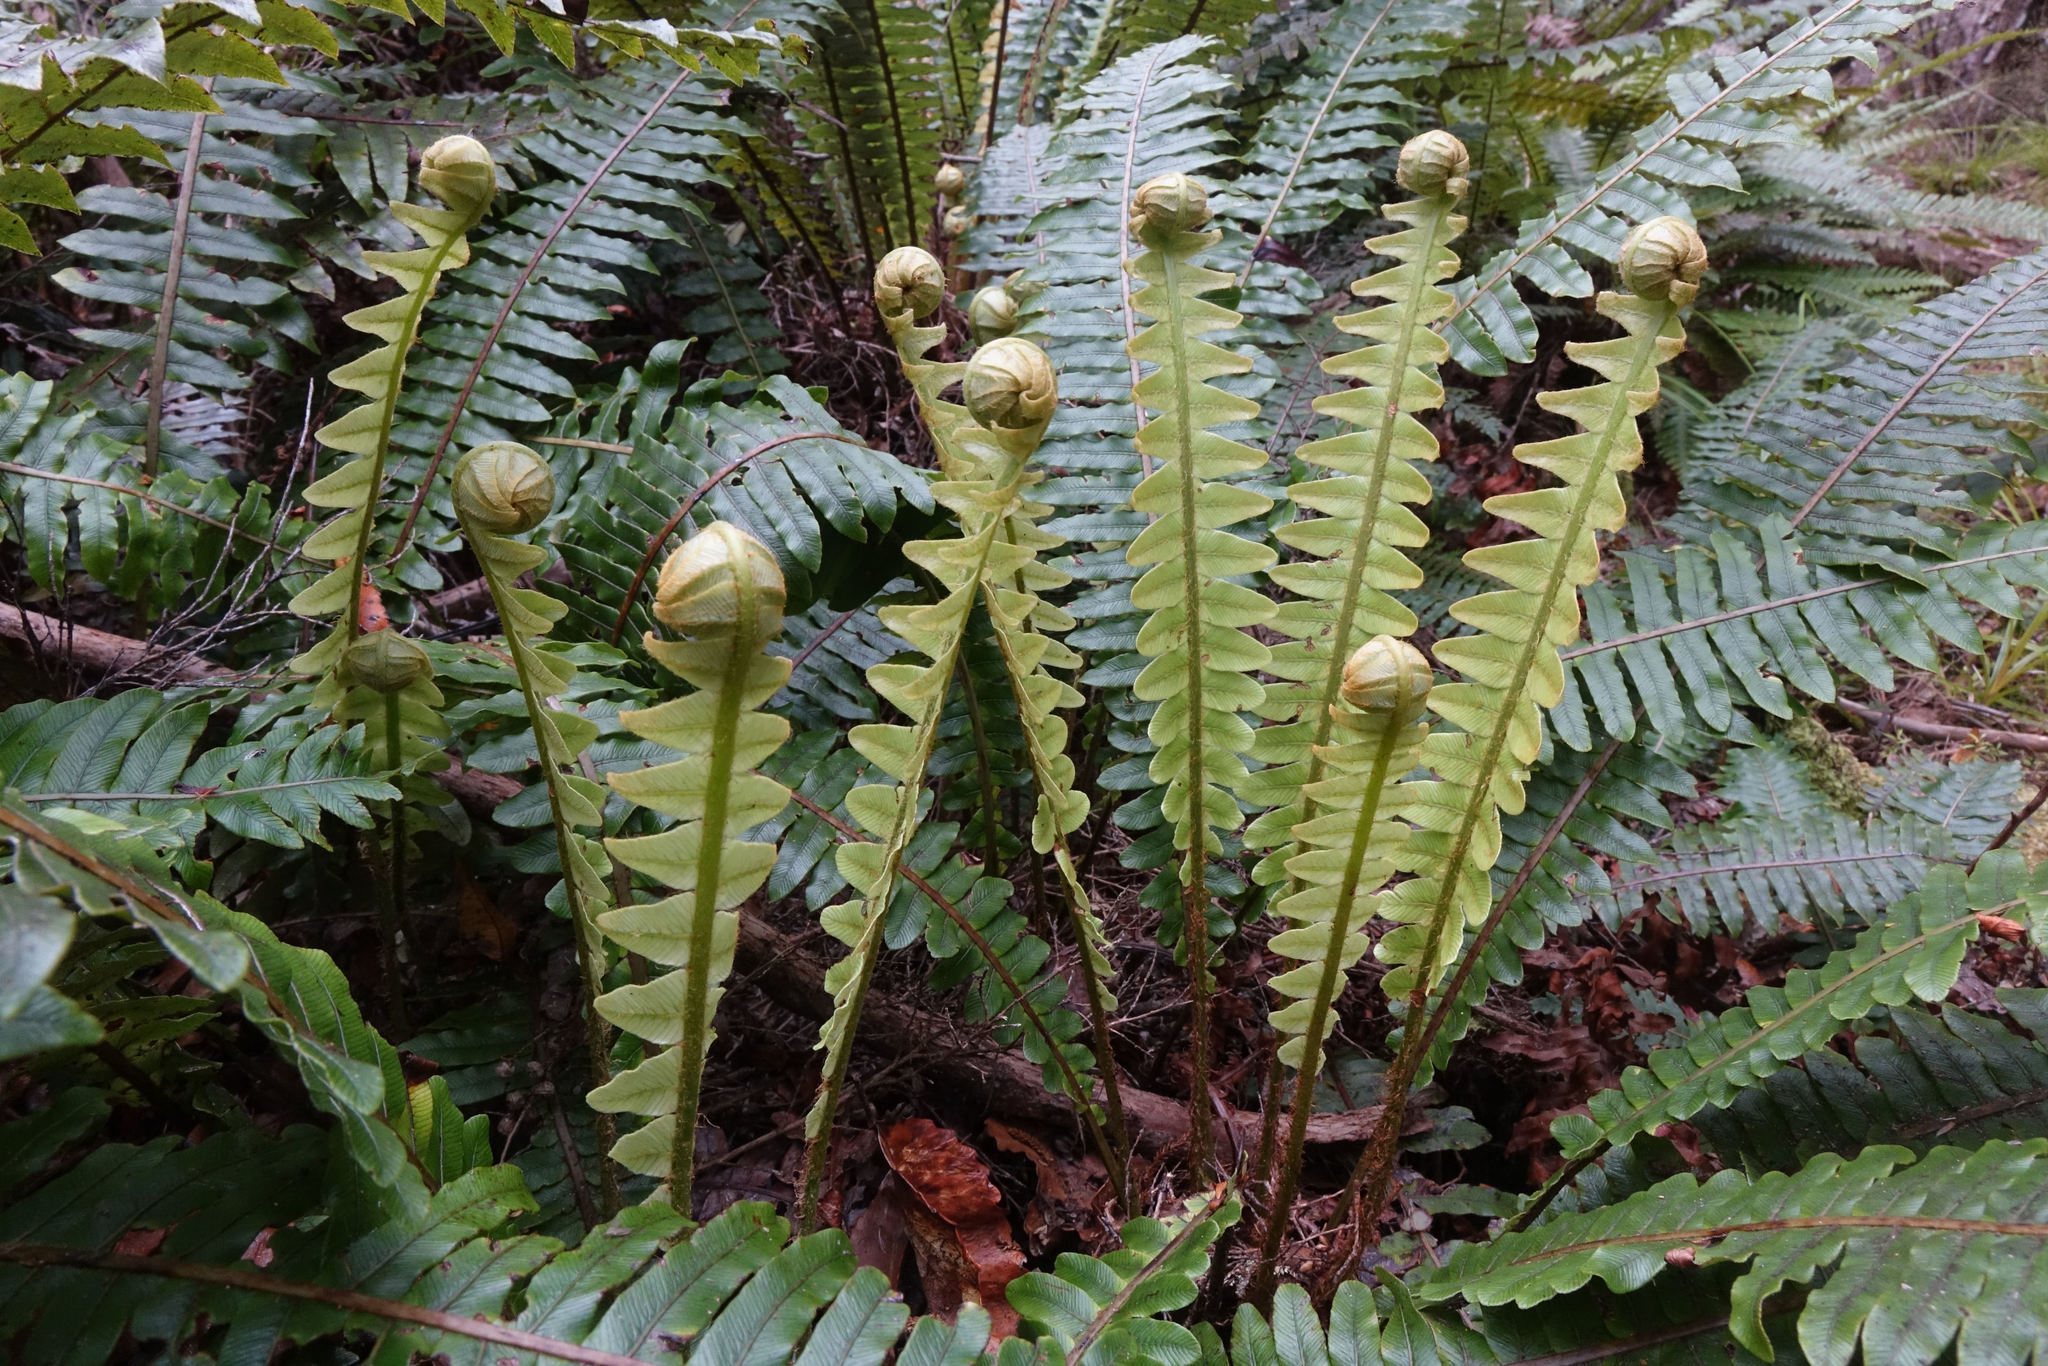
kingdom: Plantae
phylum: Tracheophyta
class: Polypodiopsida
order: Polypodiales
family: Blechnaceae
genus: Lomaria
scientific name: Lomaria discolor
